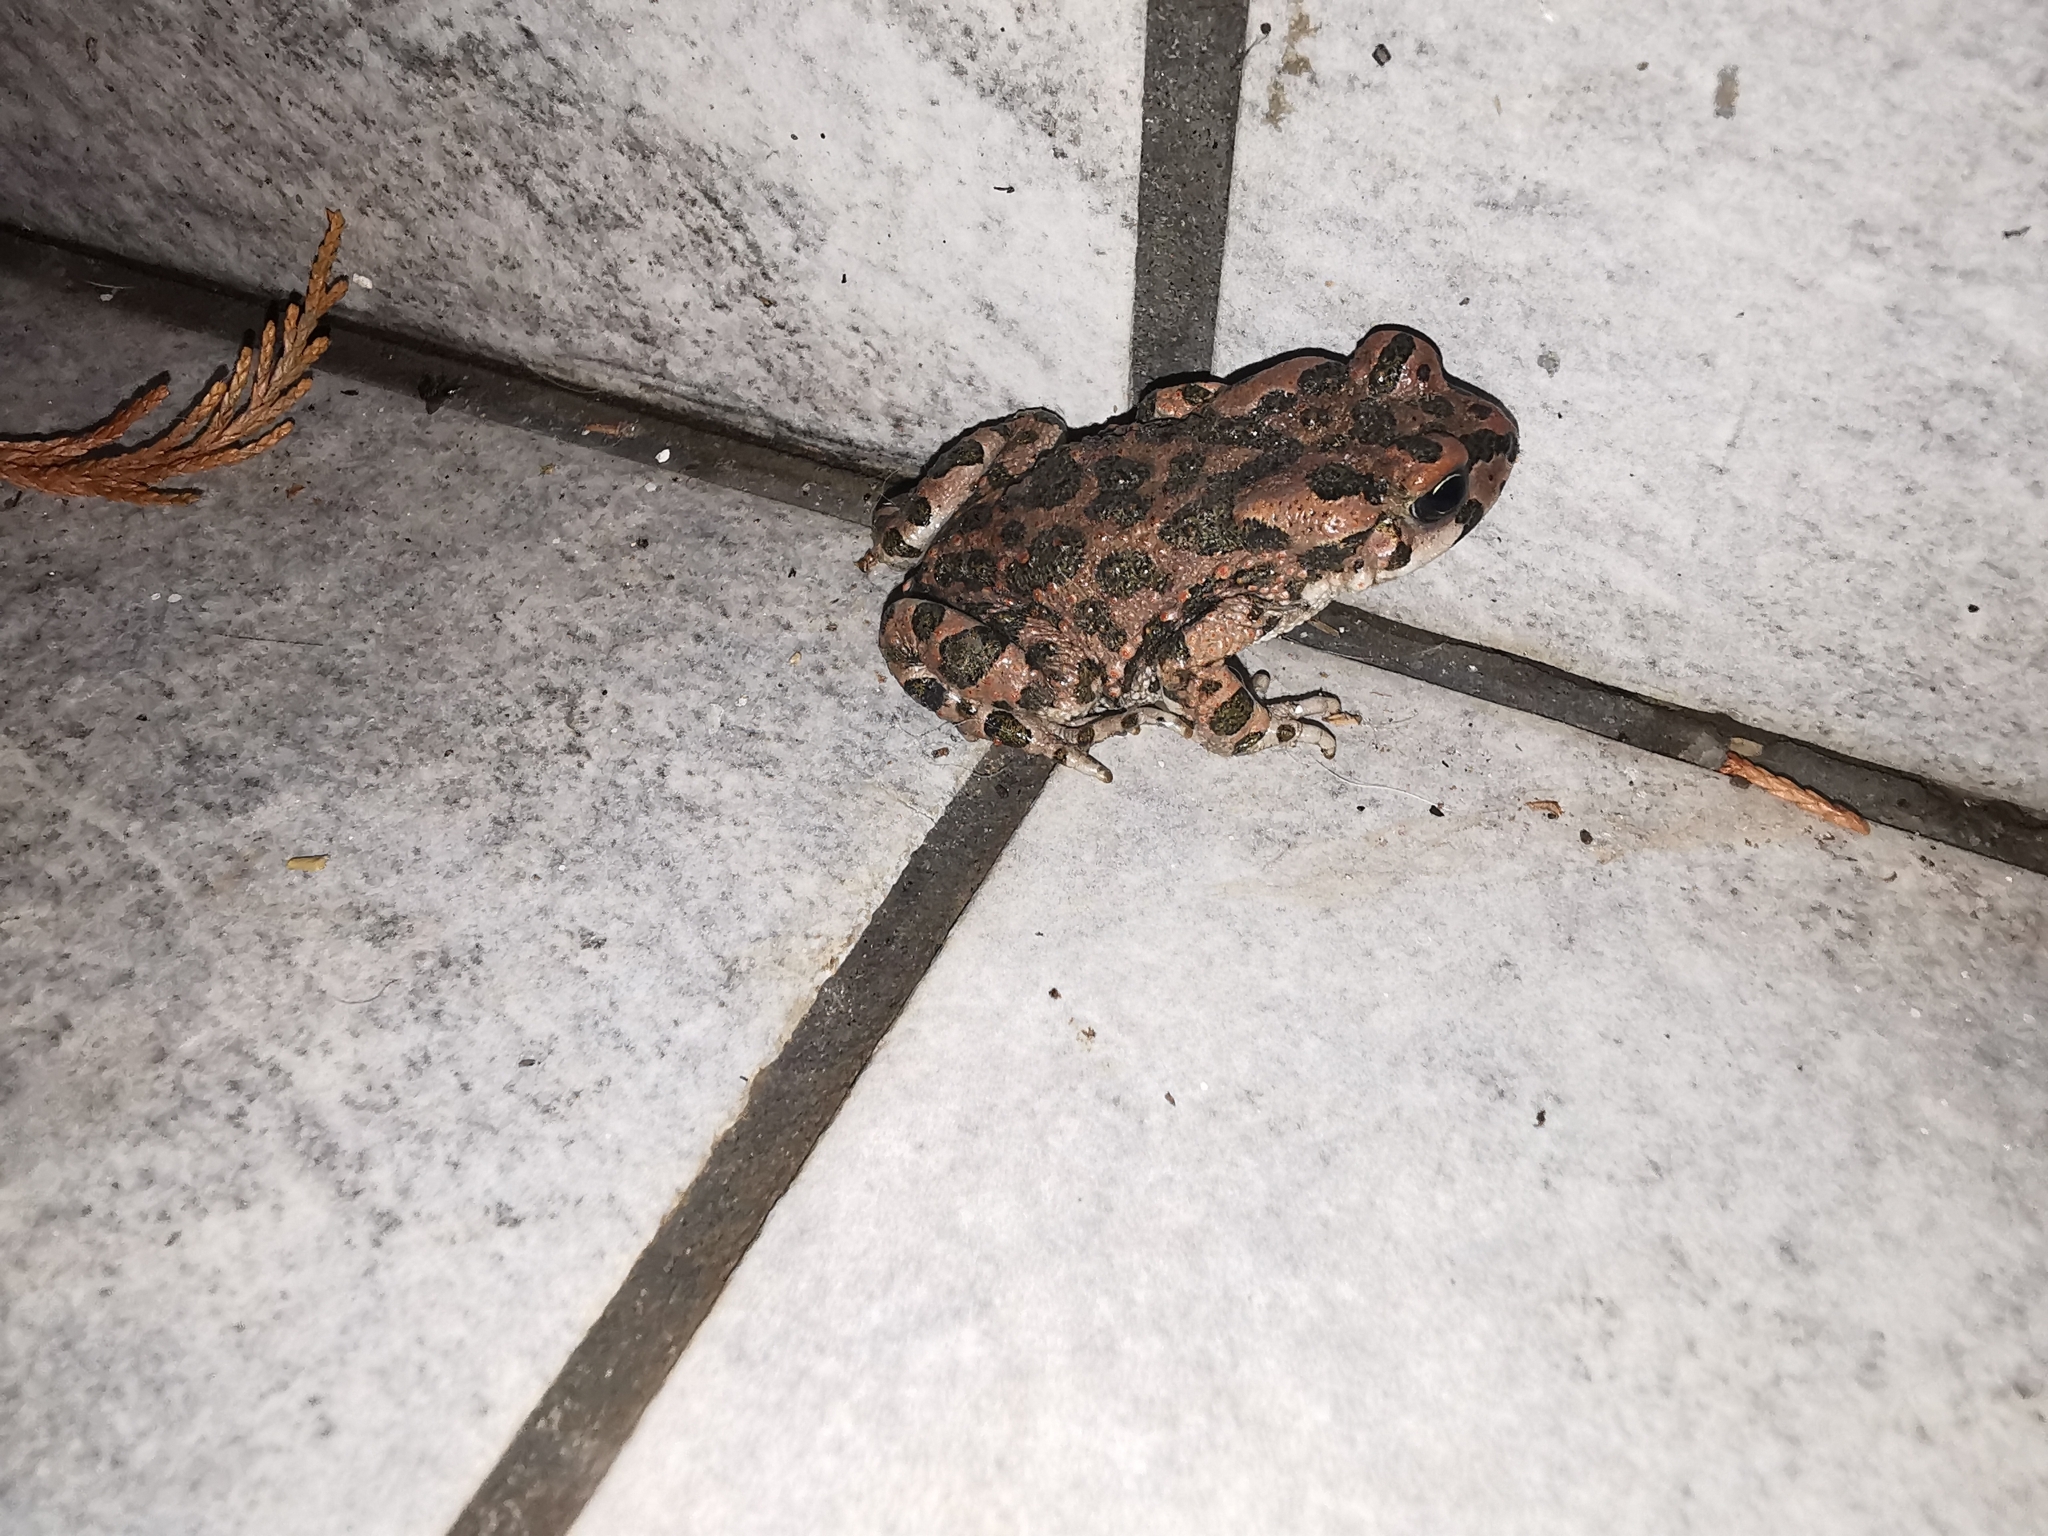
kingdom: Animalia
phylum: Chordata
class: Amphibia
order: Anura
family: Bufonidae
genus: Bufotes
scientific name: Bufotes viridis
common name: European green toad
